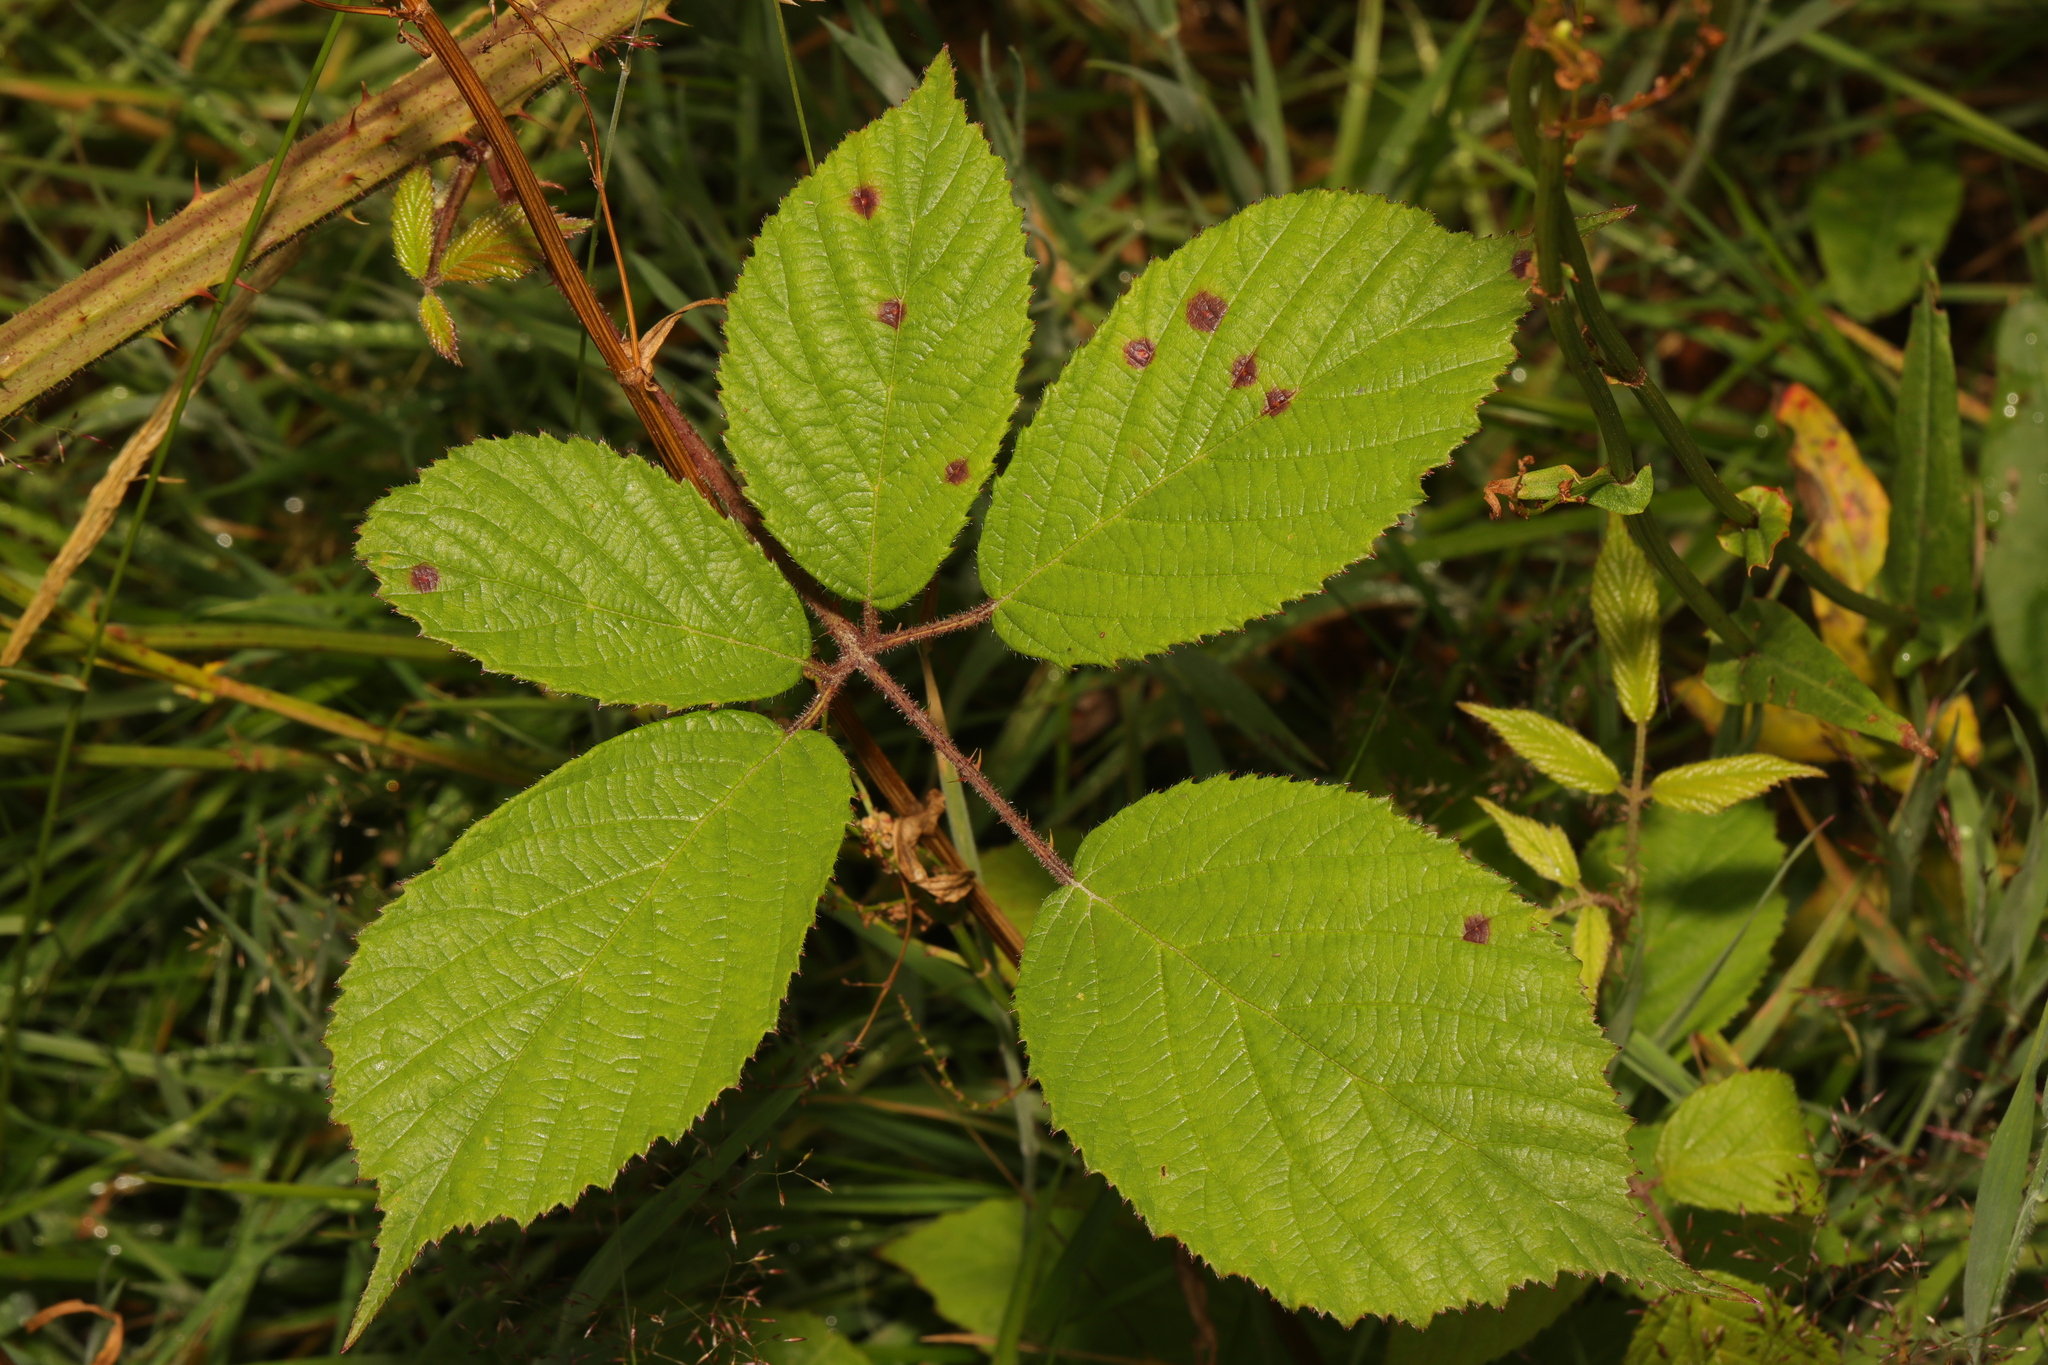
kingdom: Plantae
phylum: Tracheophyta
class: Magnoliopsida
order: Rosales
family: Rosaceae
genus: Rubus
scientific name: Rubus rufescens
